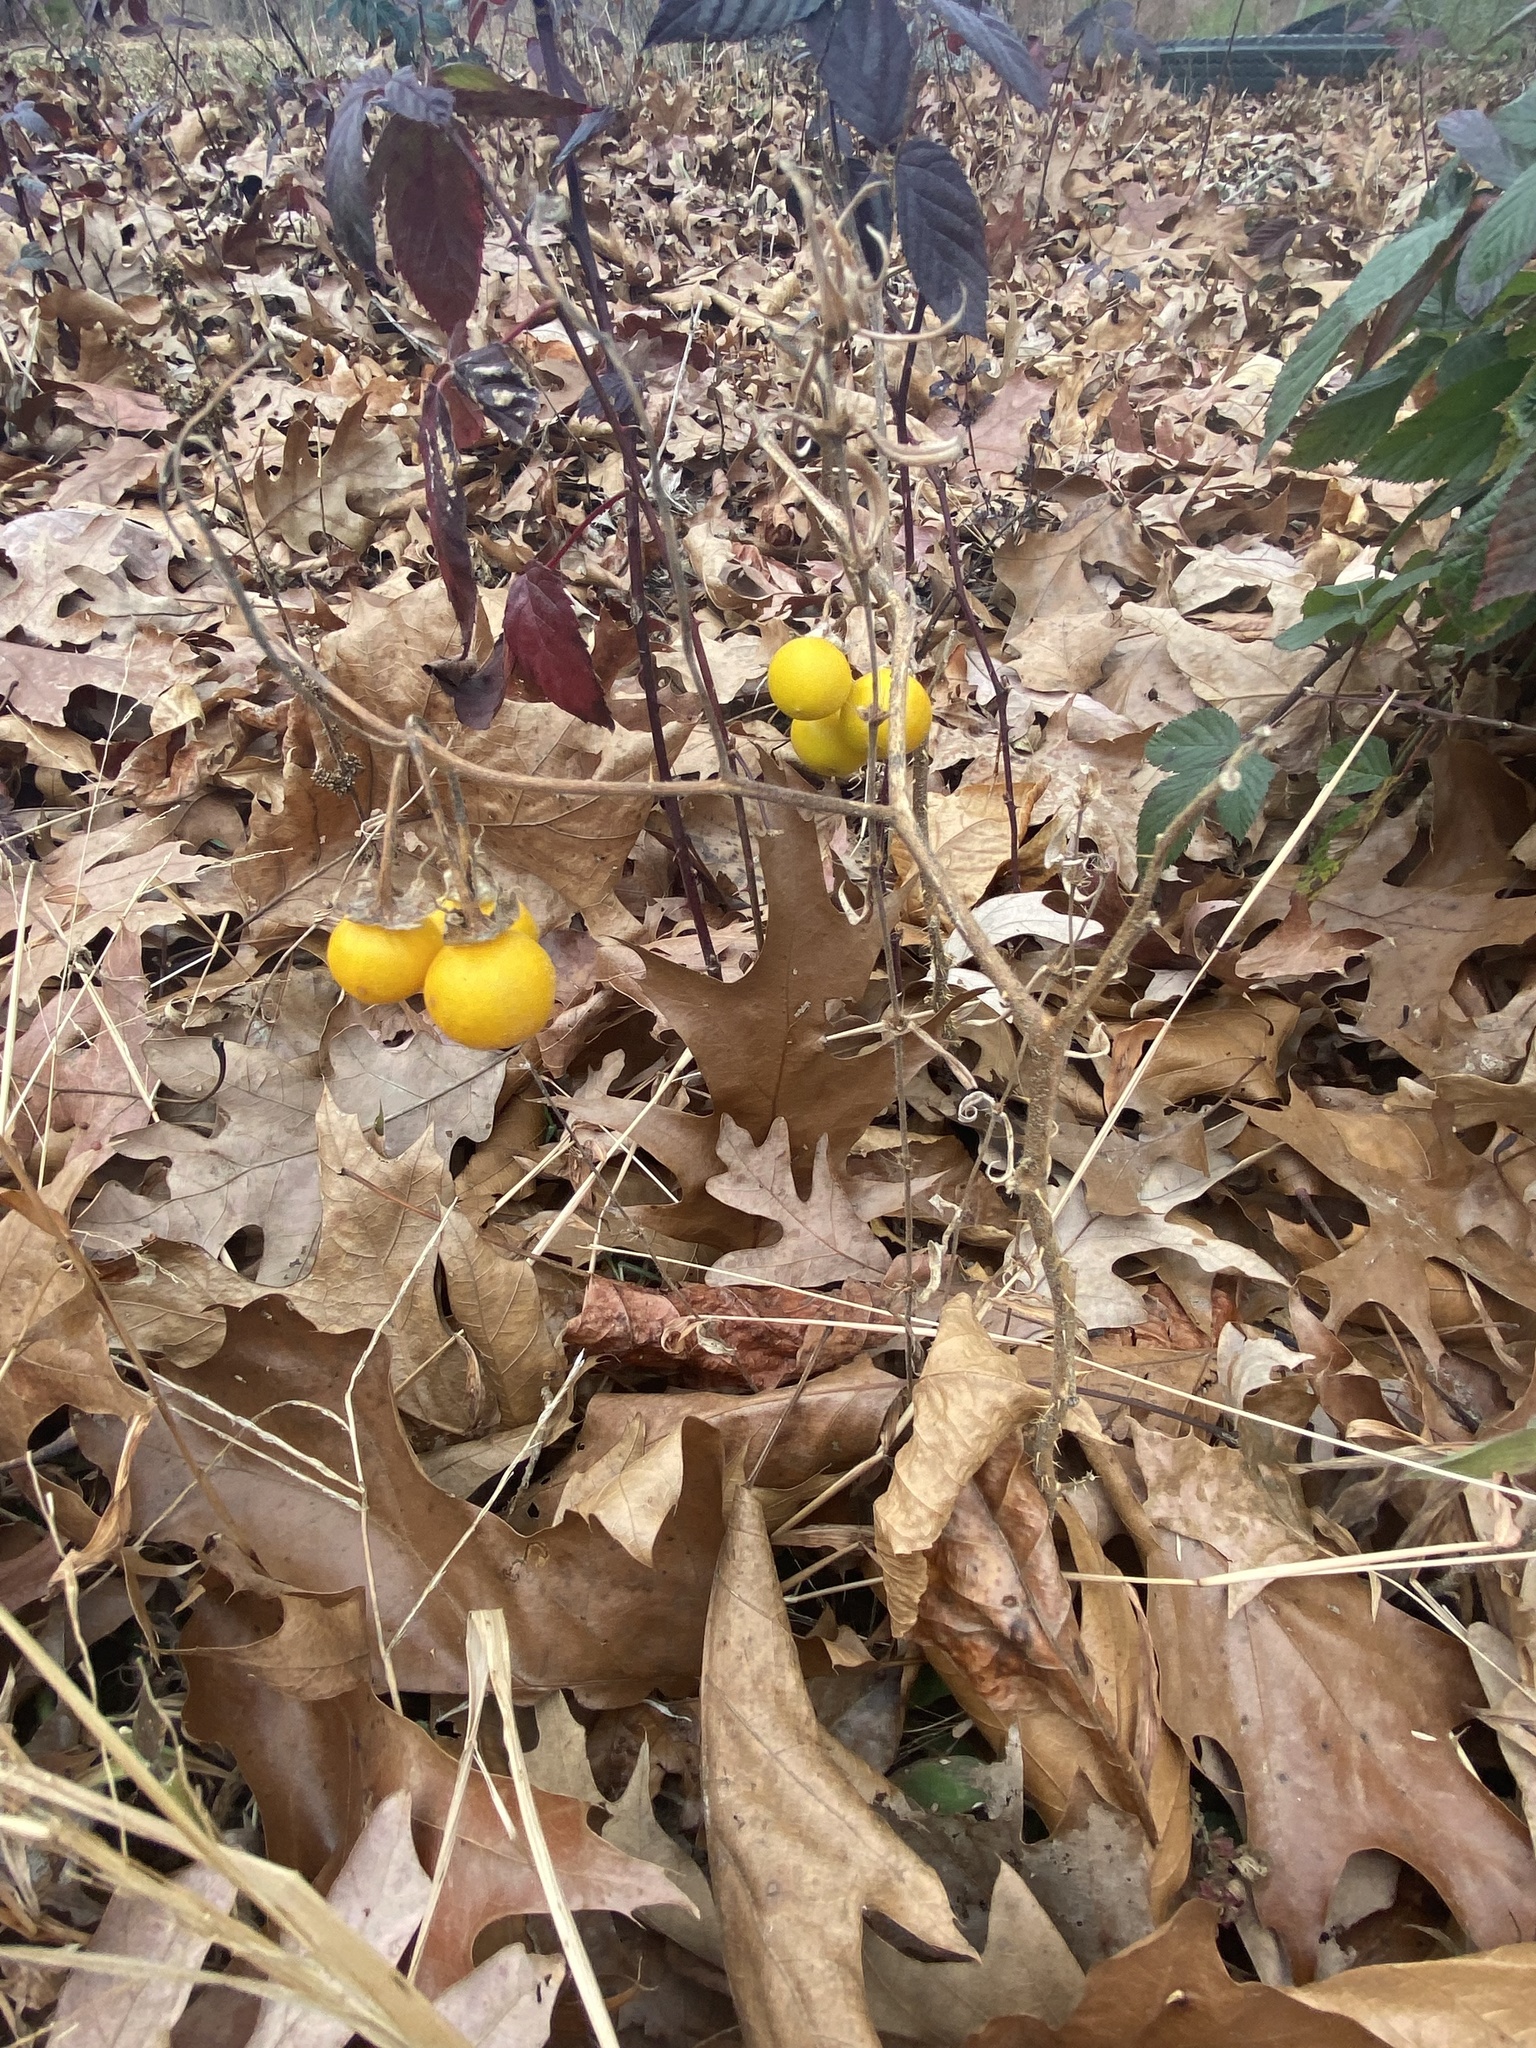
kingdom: Plantae
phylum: Tracheophyta
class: Magnoliopsida
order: Solanales
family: Solanaceae
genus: Solanum
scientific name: Solanum carolinense
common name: Horse-nettle
